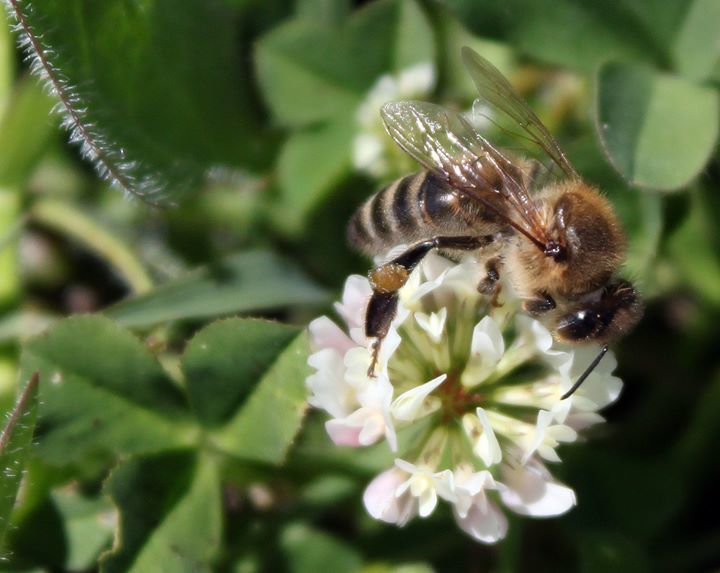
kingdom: Animalia
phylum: Arthropoda
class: Insecta
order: Hymenoptera
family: Apidae
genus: Apis
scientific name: Apis mellifera
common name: Honey bee
